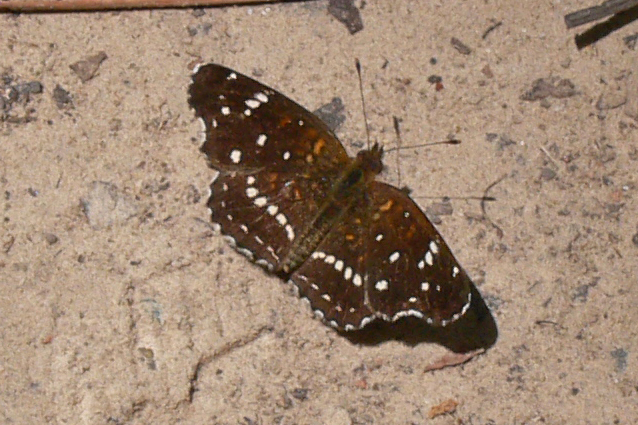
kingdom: Animalia
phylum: Arthropoda
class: Insecta
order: Lepidoptera
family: Nymphalidae
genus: Anthanassa
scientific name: Anthanassa texana
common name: Texan crescent
